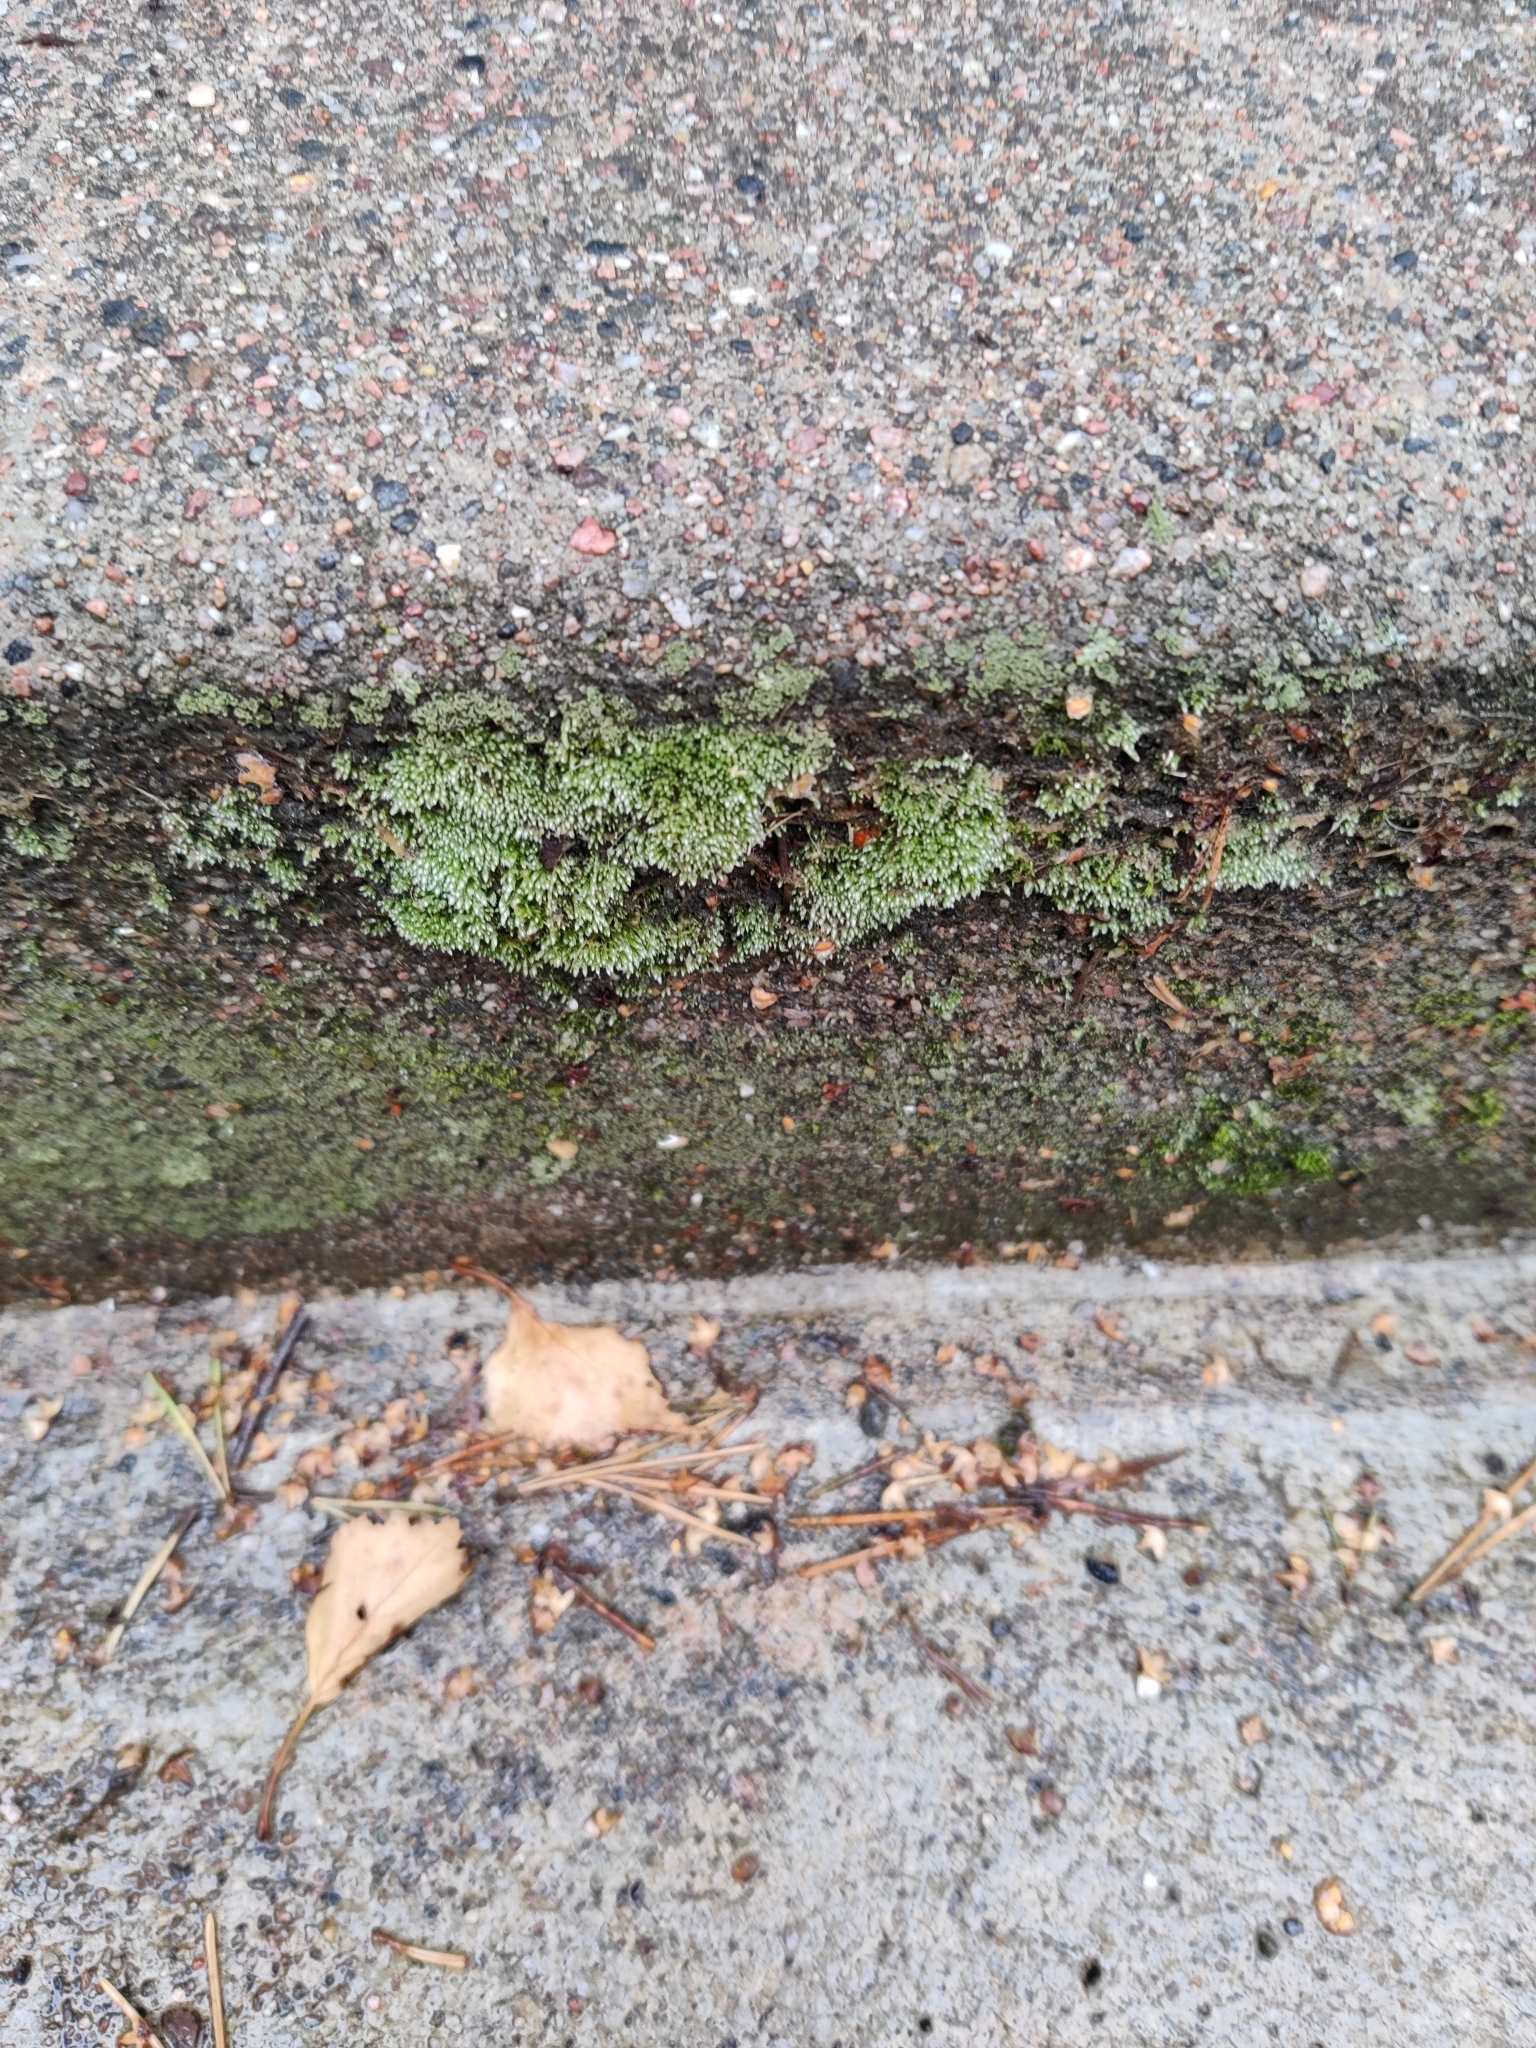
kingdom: Plantae
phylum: Bryophyta
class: Bryopsida
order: Bryales
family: Bryaceae
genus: Bryum
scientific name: Bryum argenteum
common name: Silver-moss
